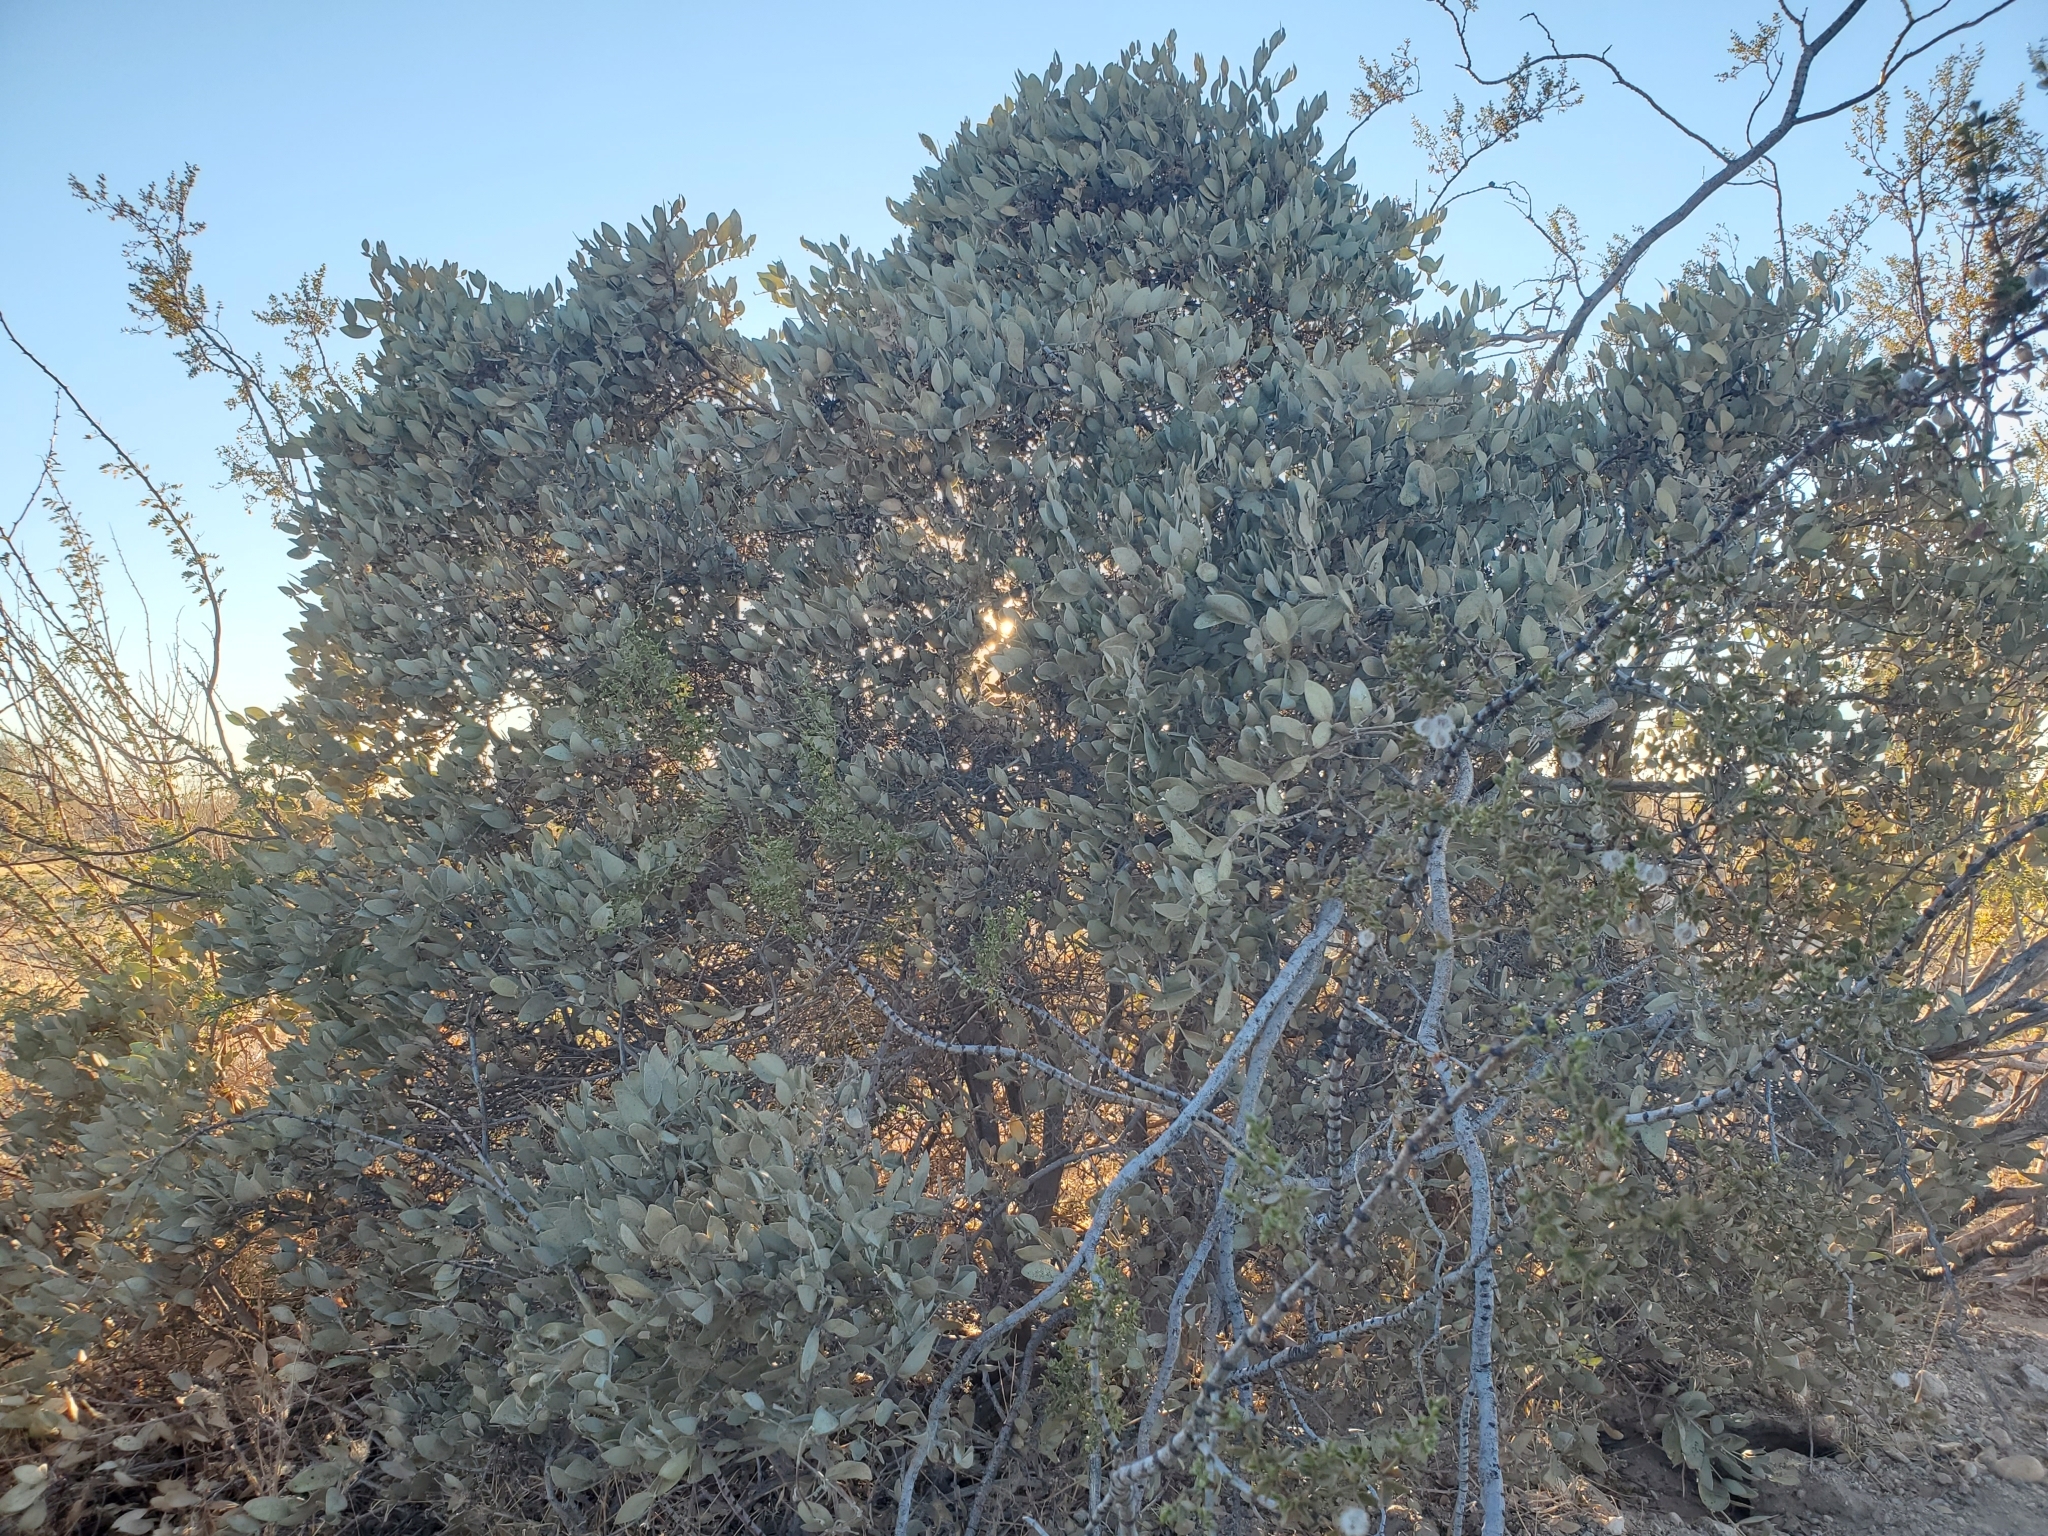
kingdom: Plantae
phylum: Tracheophyta
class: Magnoliopsida
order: Caryophyllales
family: Simmondsiaceae
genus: Simmondsia
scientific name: Simmondsia chinensis
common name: Jojoba
